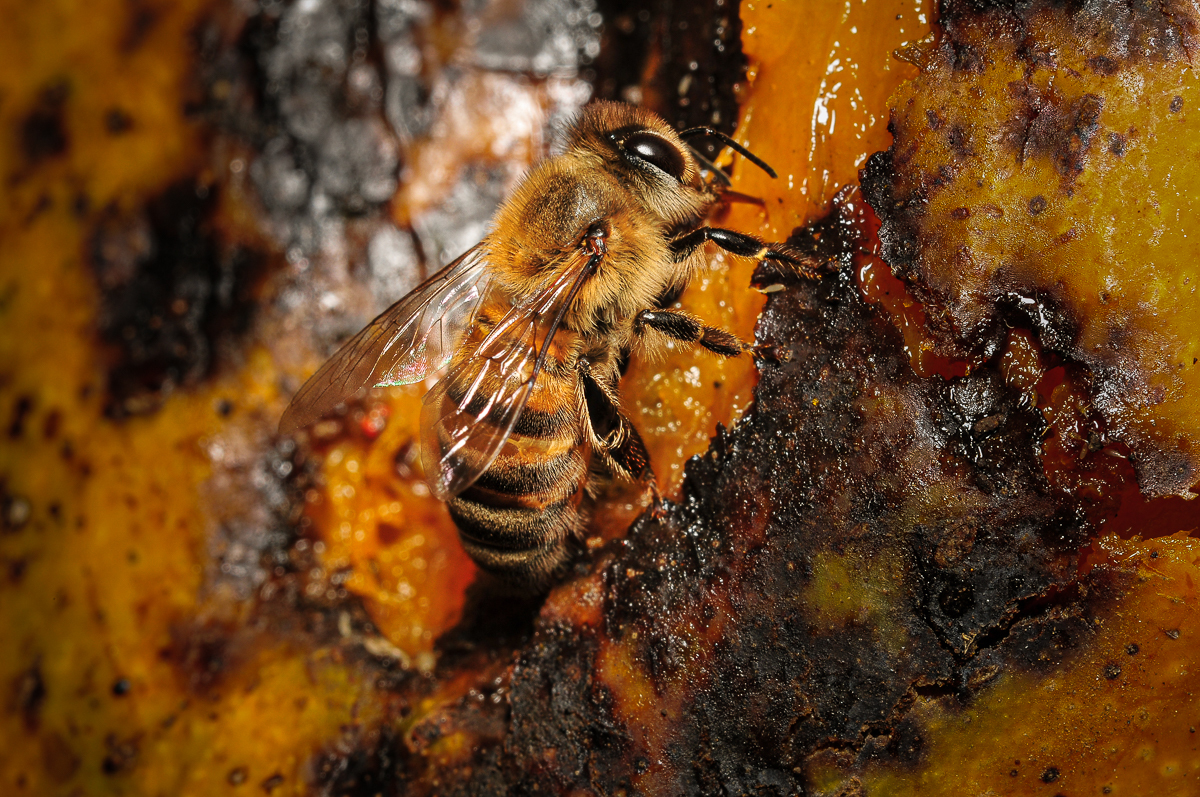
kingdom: Animalia
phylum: Arthropoda
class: Insecta
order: Hymenoptera
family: Apidae
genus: Apis
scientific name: Apis mellifera
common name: Honey bee
